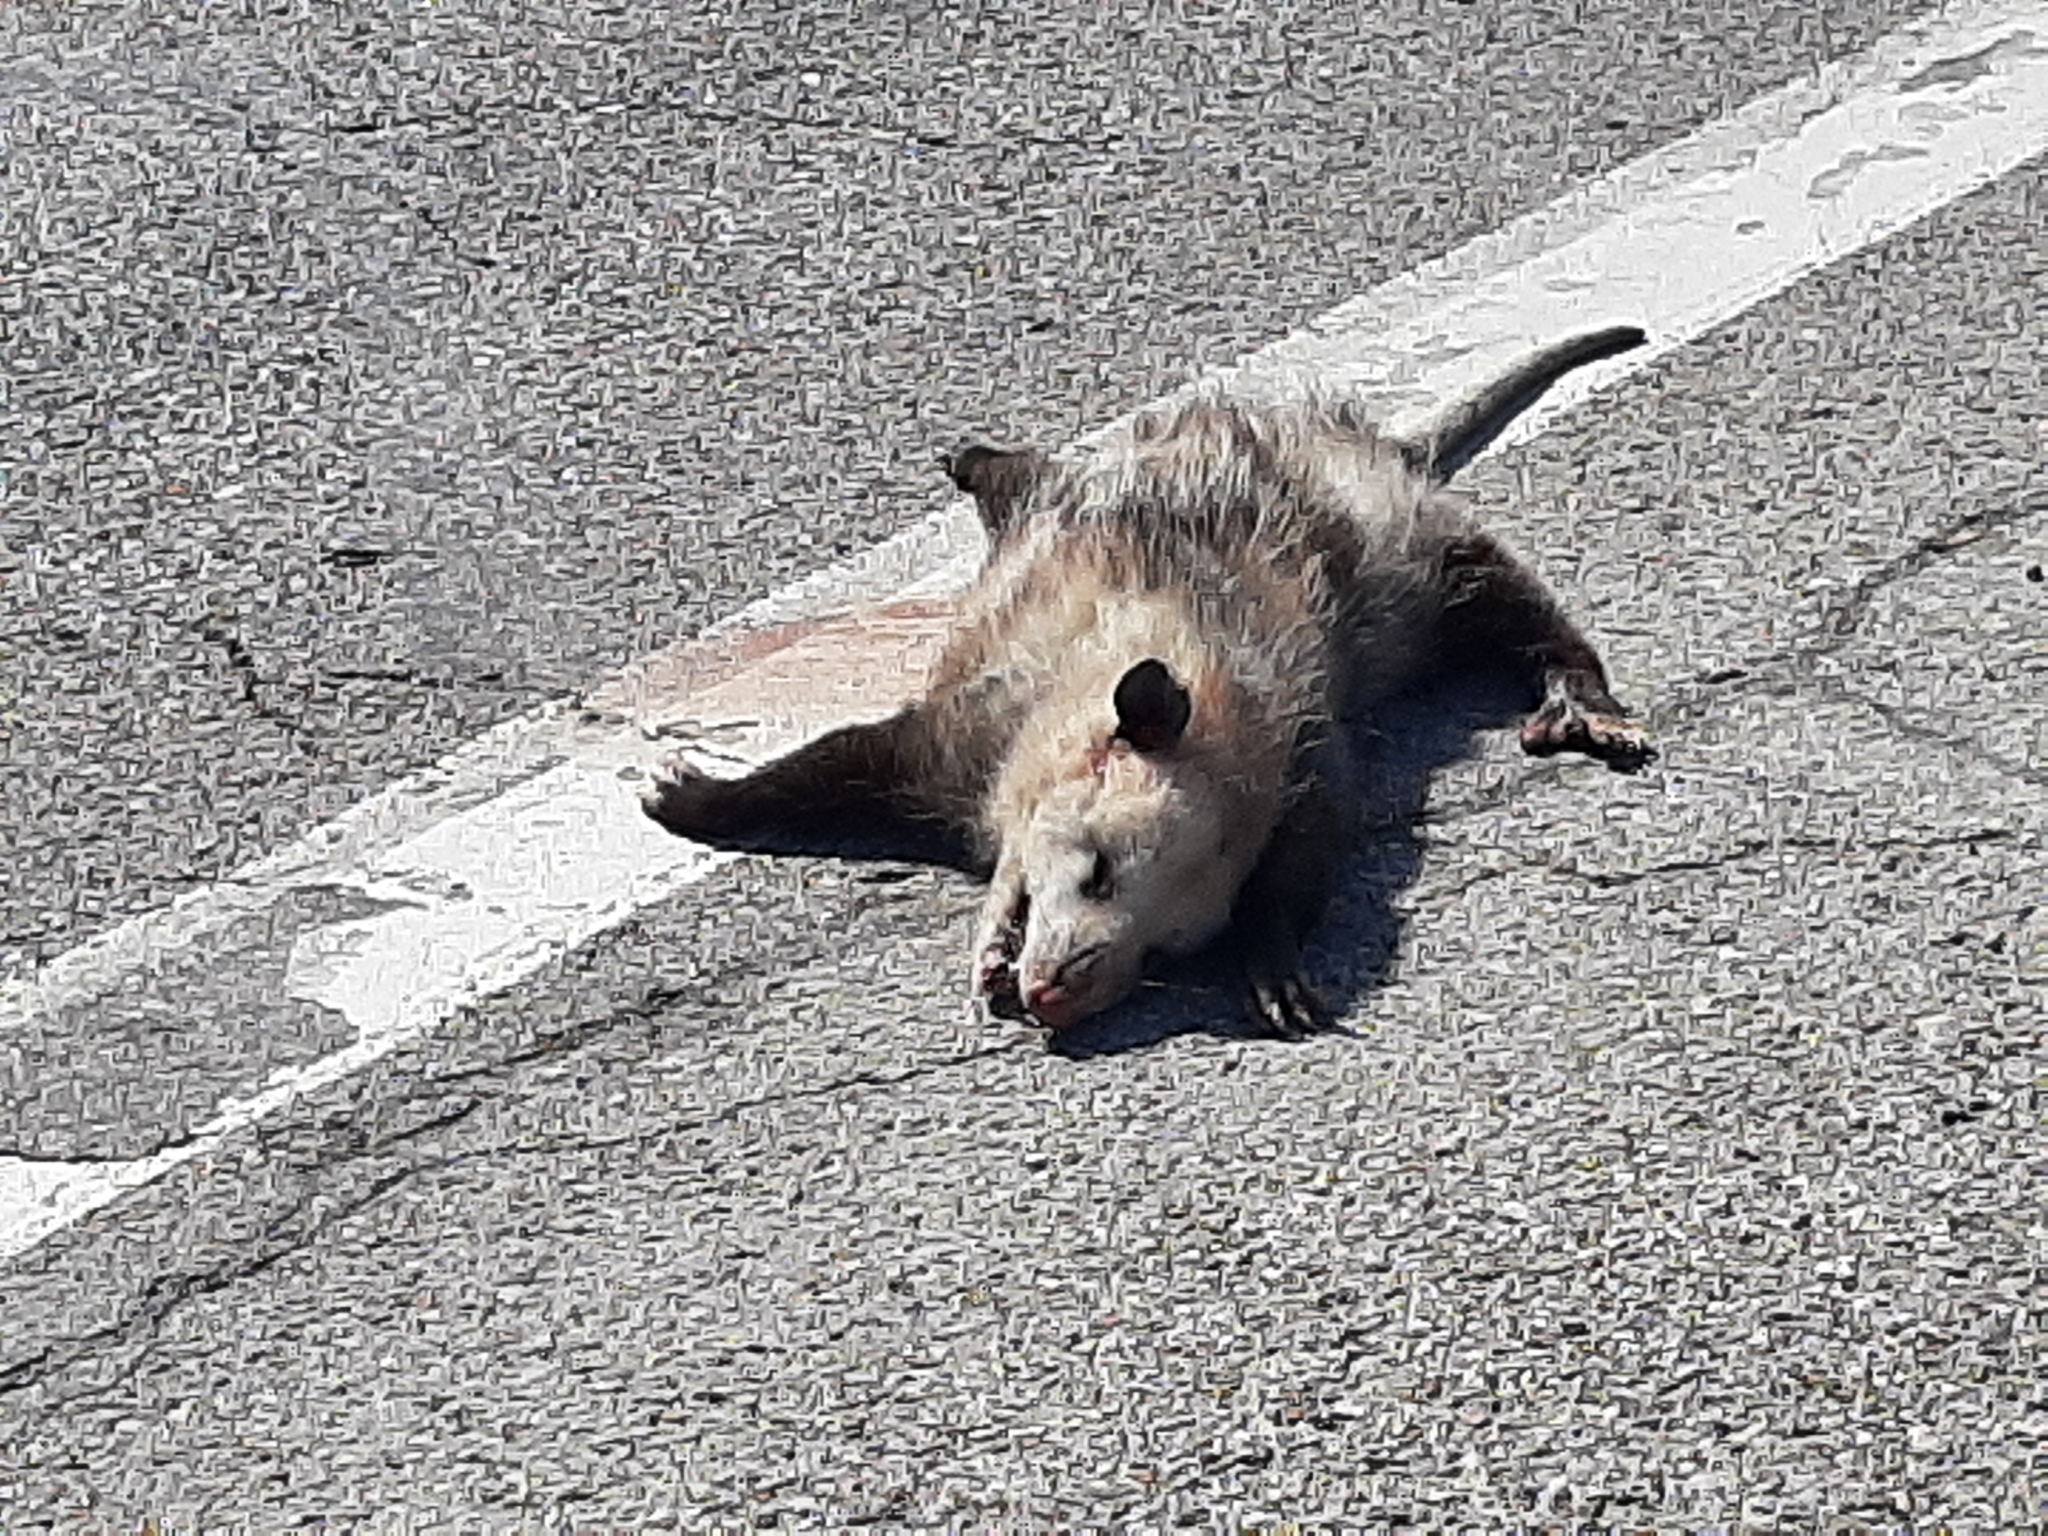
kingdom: Animalia
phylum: Chordata
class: Mammalia
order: Didelphimorphia
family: Didelphidae
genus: Didelphis
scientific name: Didelphis virginiana
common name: Virginia opossum
